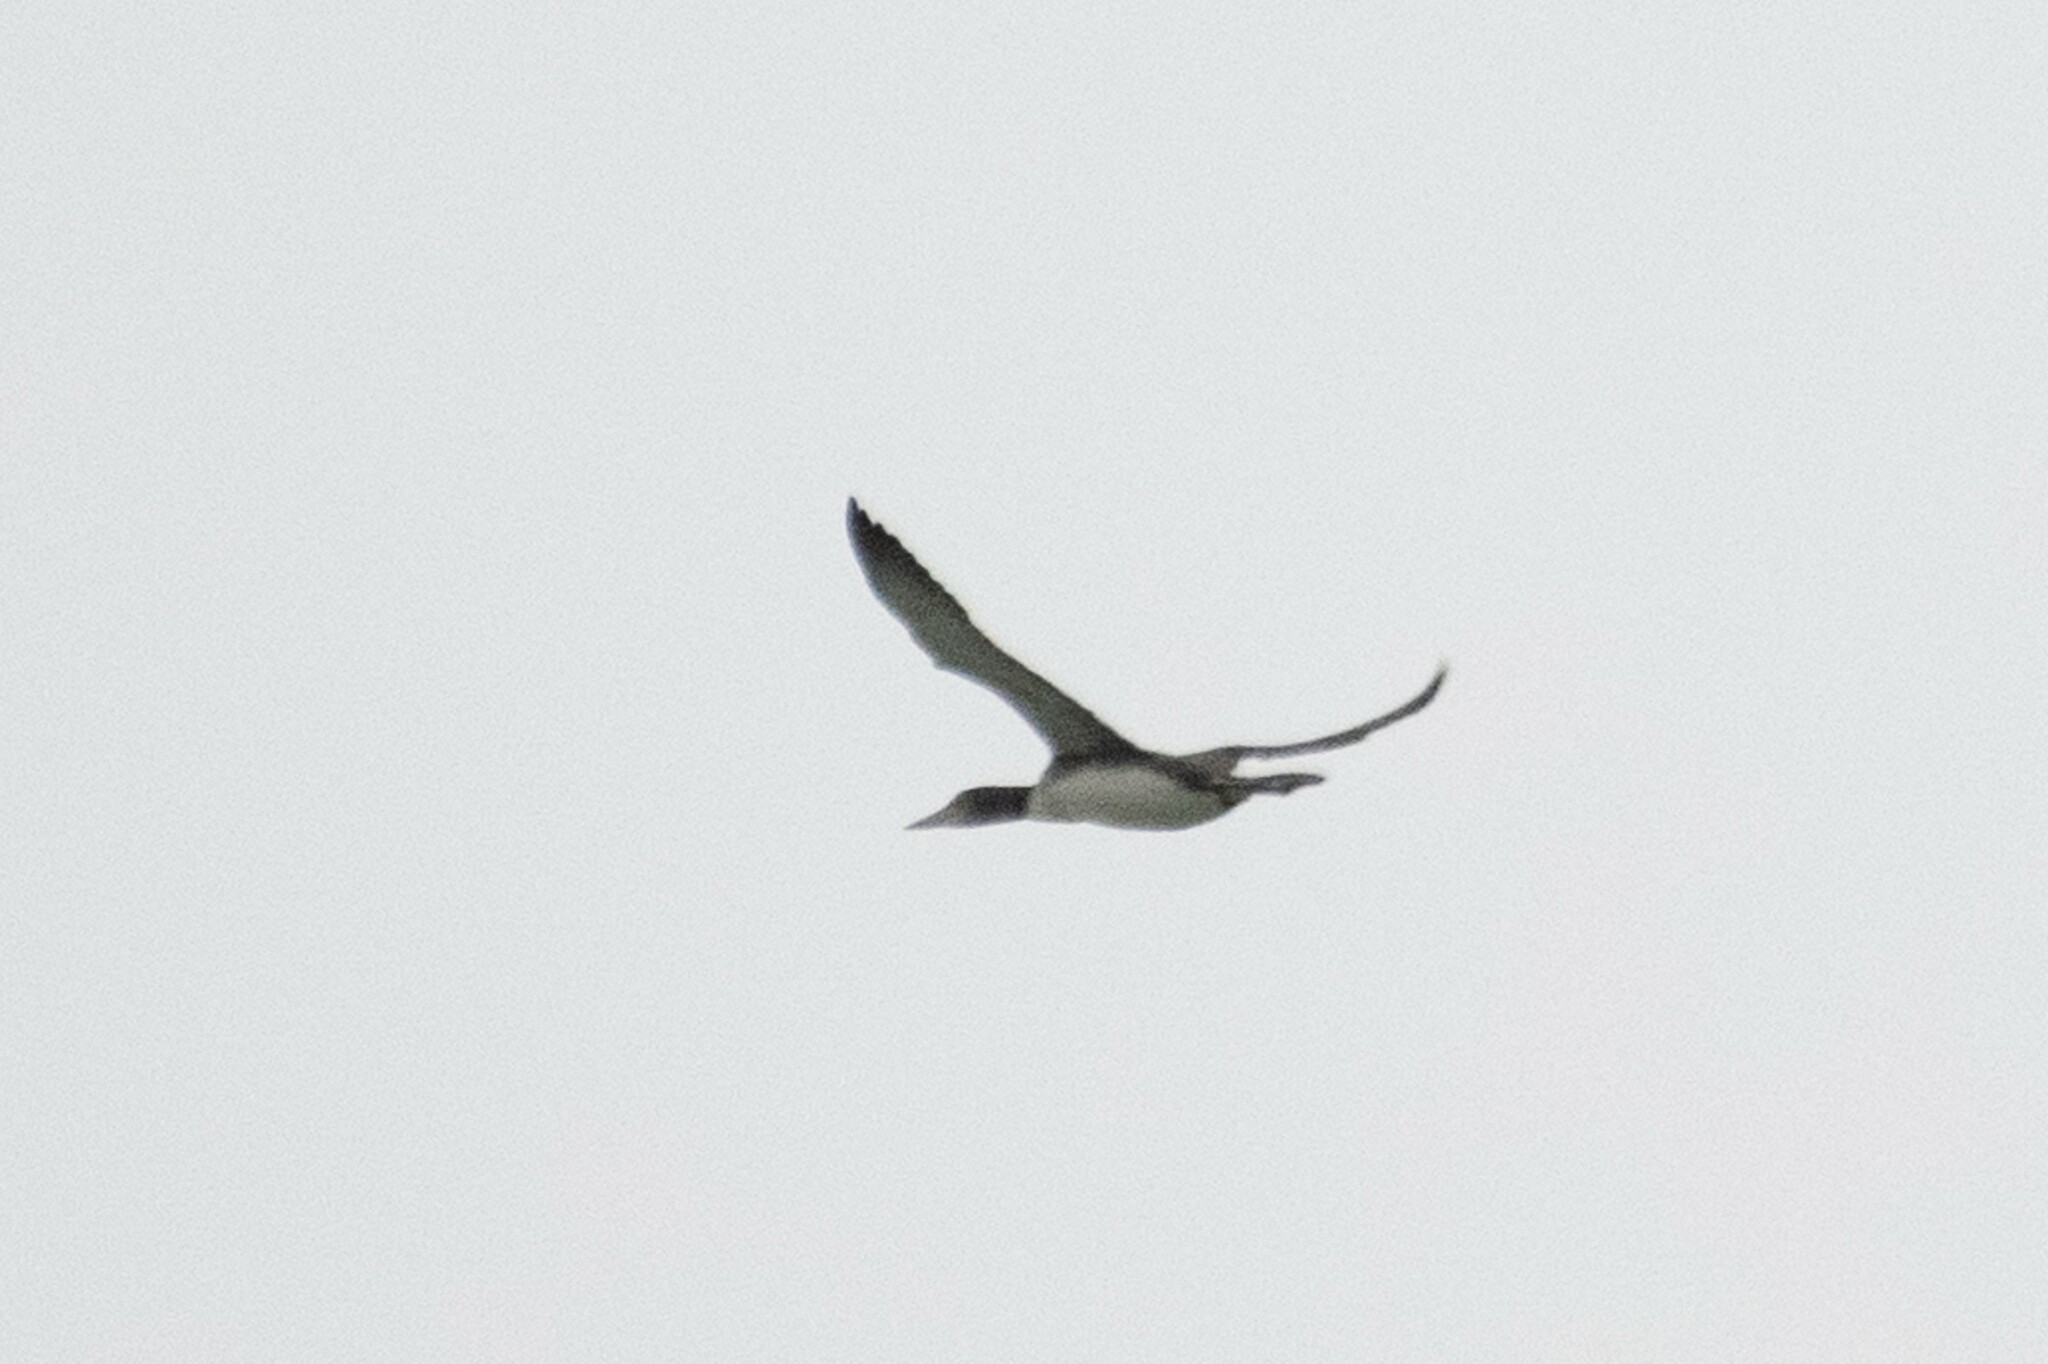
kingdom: Animalia
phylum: Chordata
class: Aves
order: Gaviiformes
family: Gaviidae
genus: Gavia
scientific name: Gavia immer
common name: Common loon
